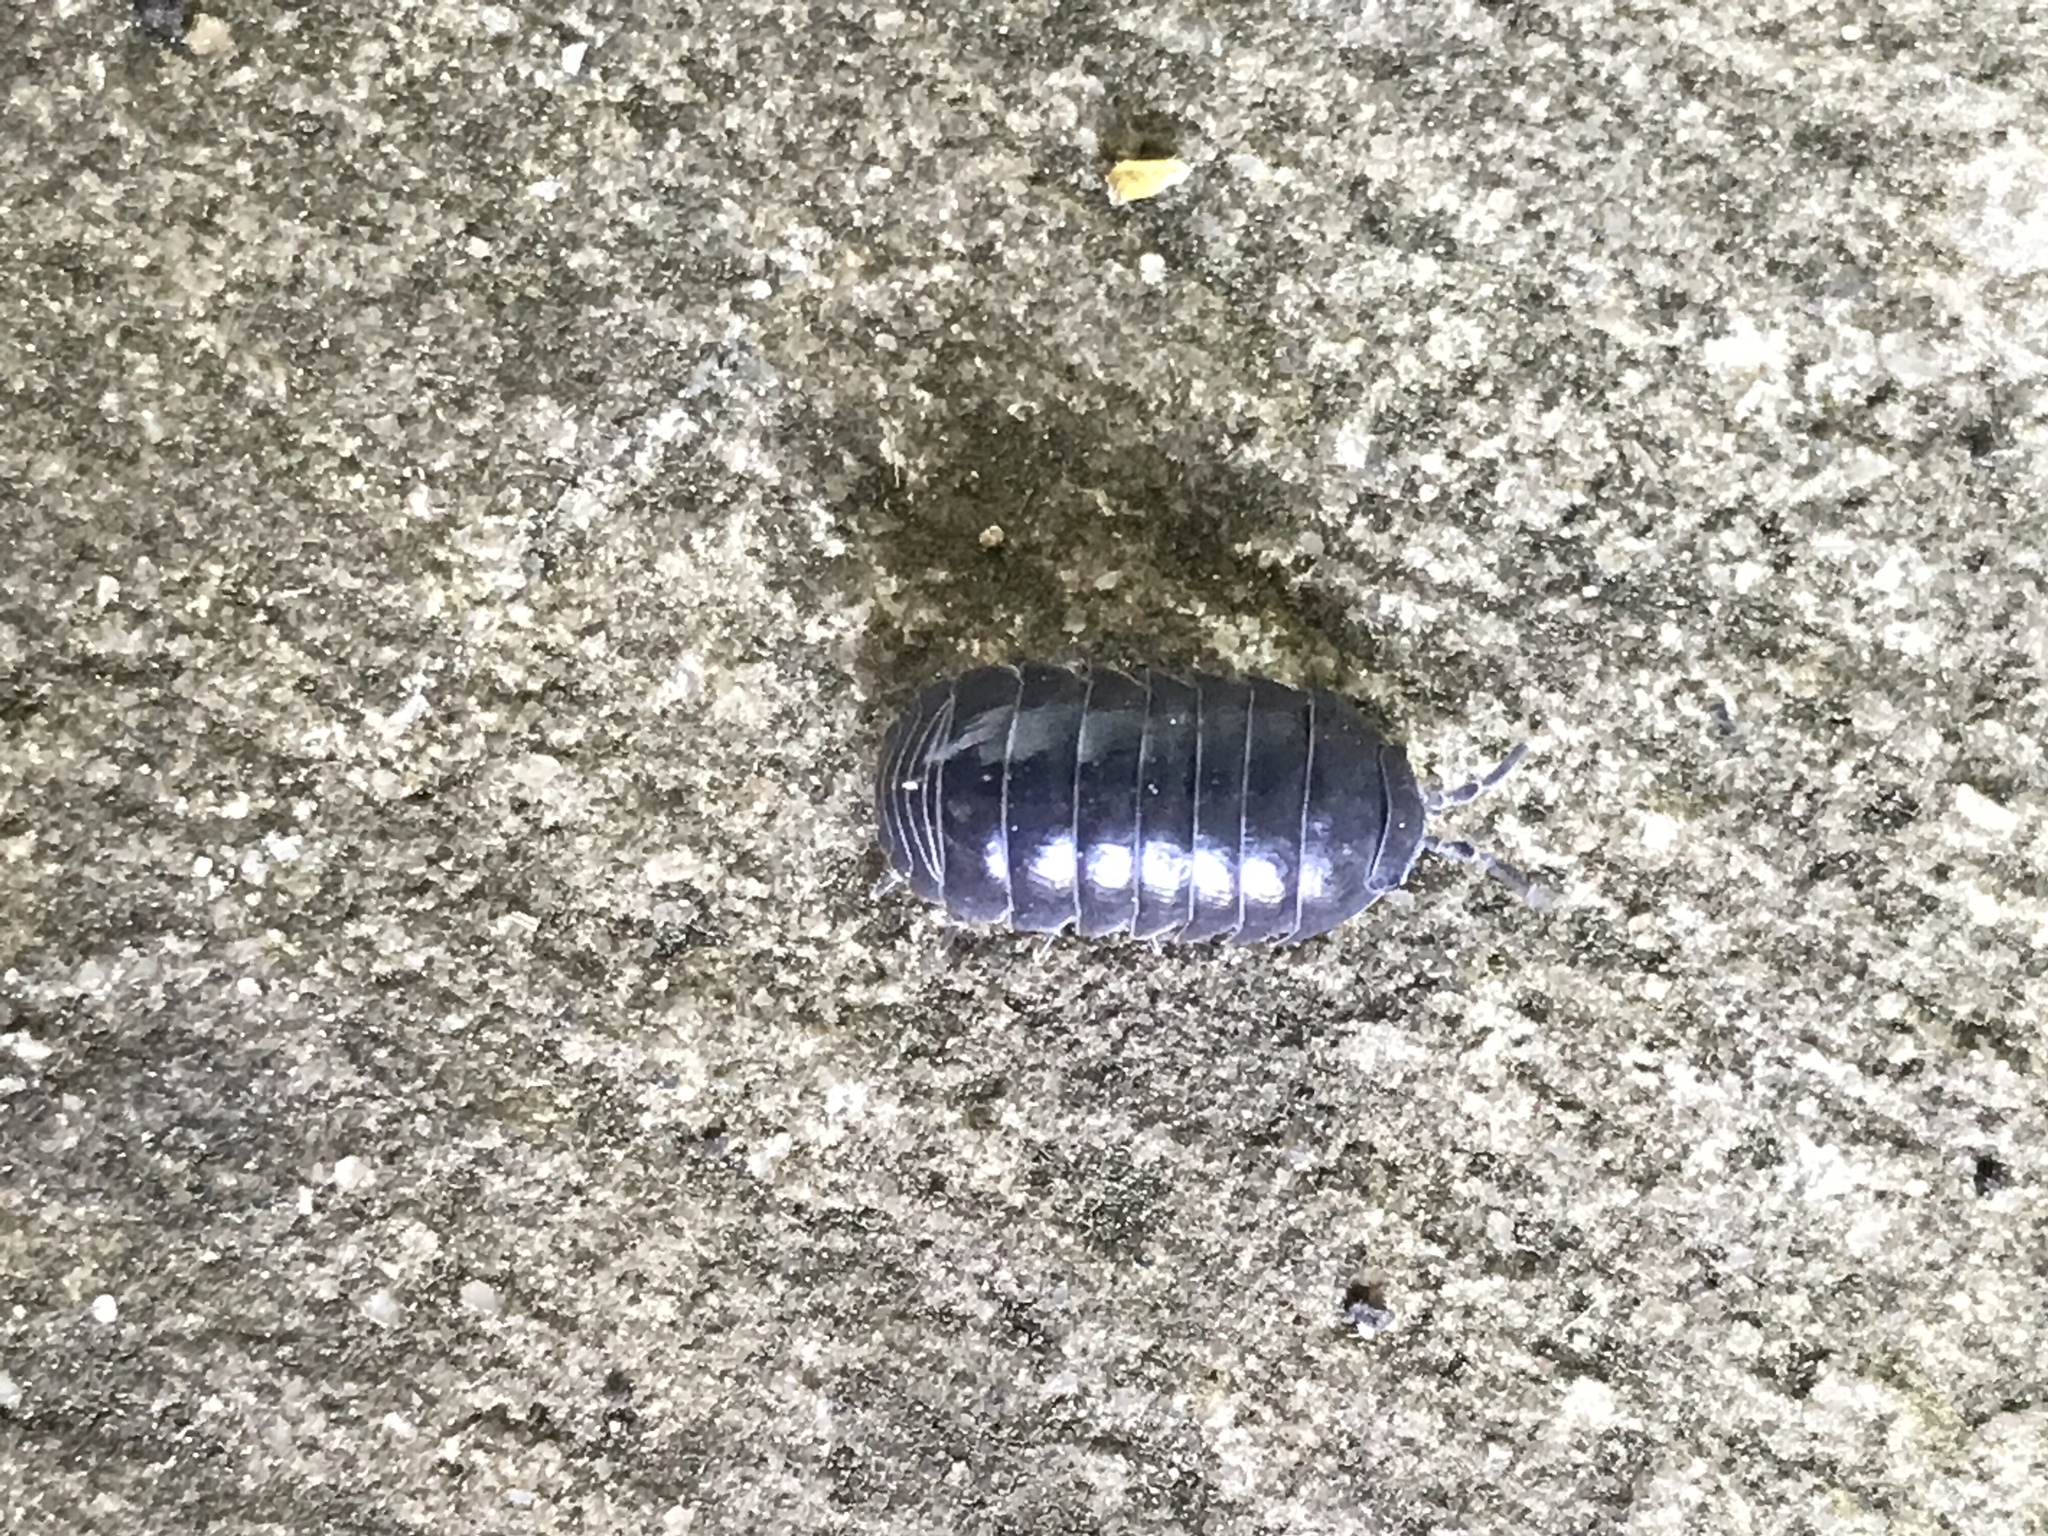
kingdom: Animalia
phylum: Arthropoda
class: Malacostraca
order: Isopoda
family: Armadillidiidae
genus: Armadillidium
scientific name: Armadillidium vulgare
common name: Common pill woodlouse
